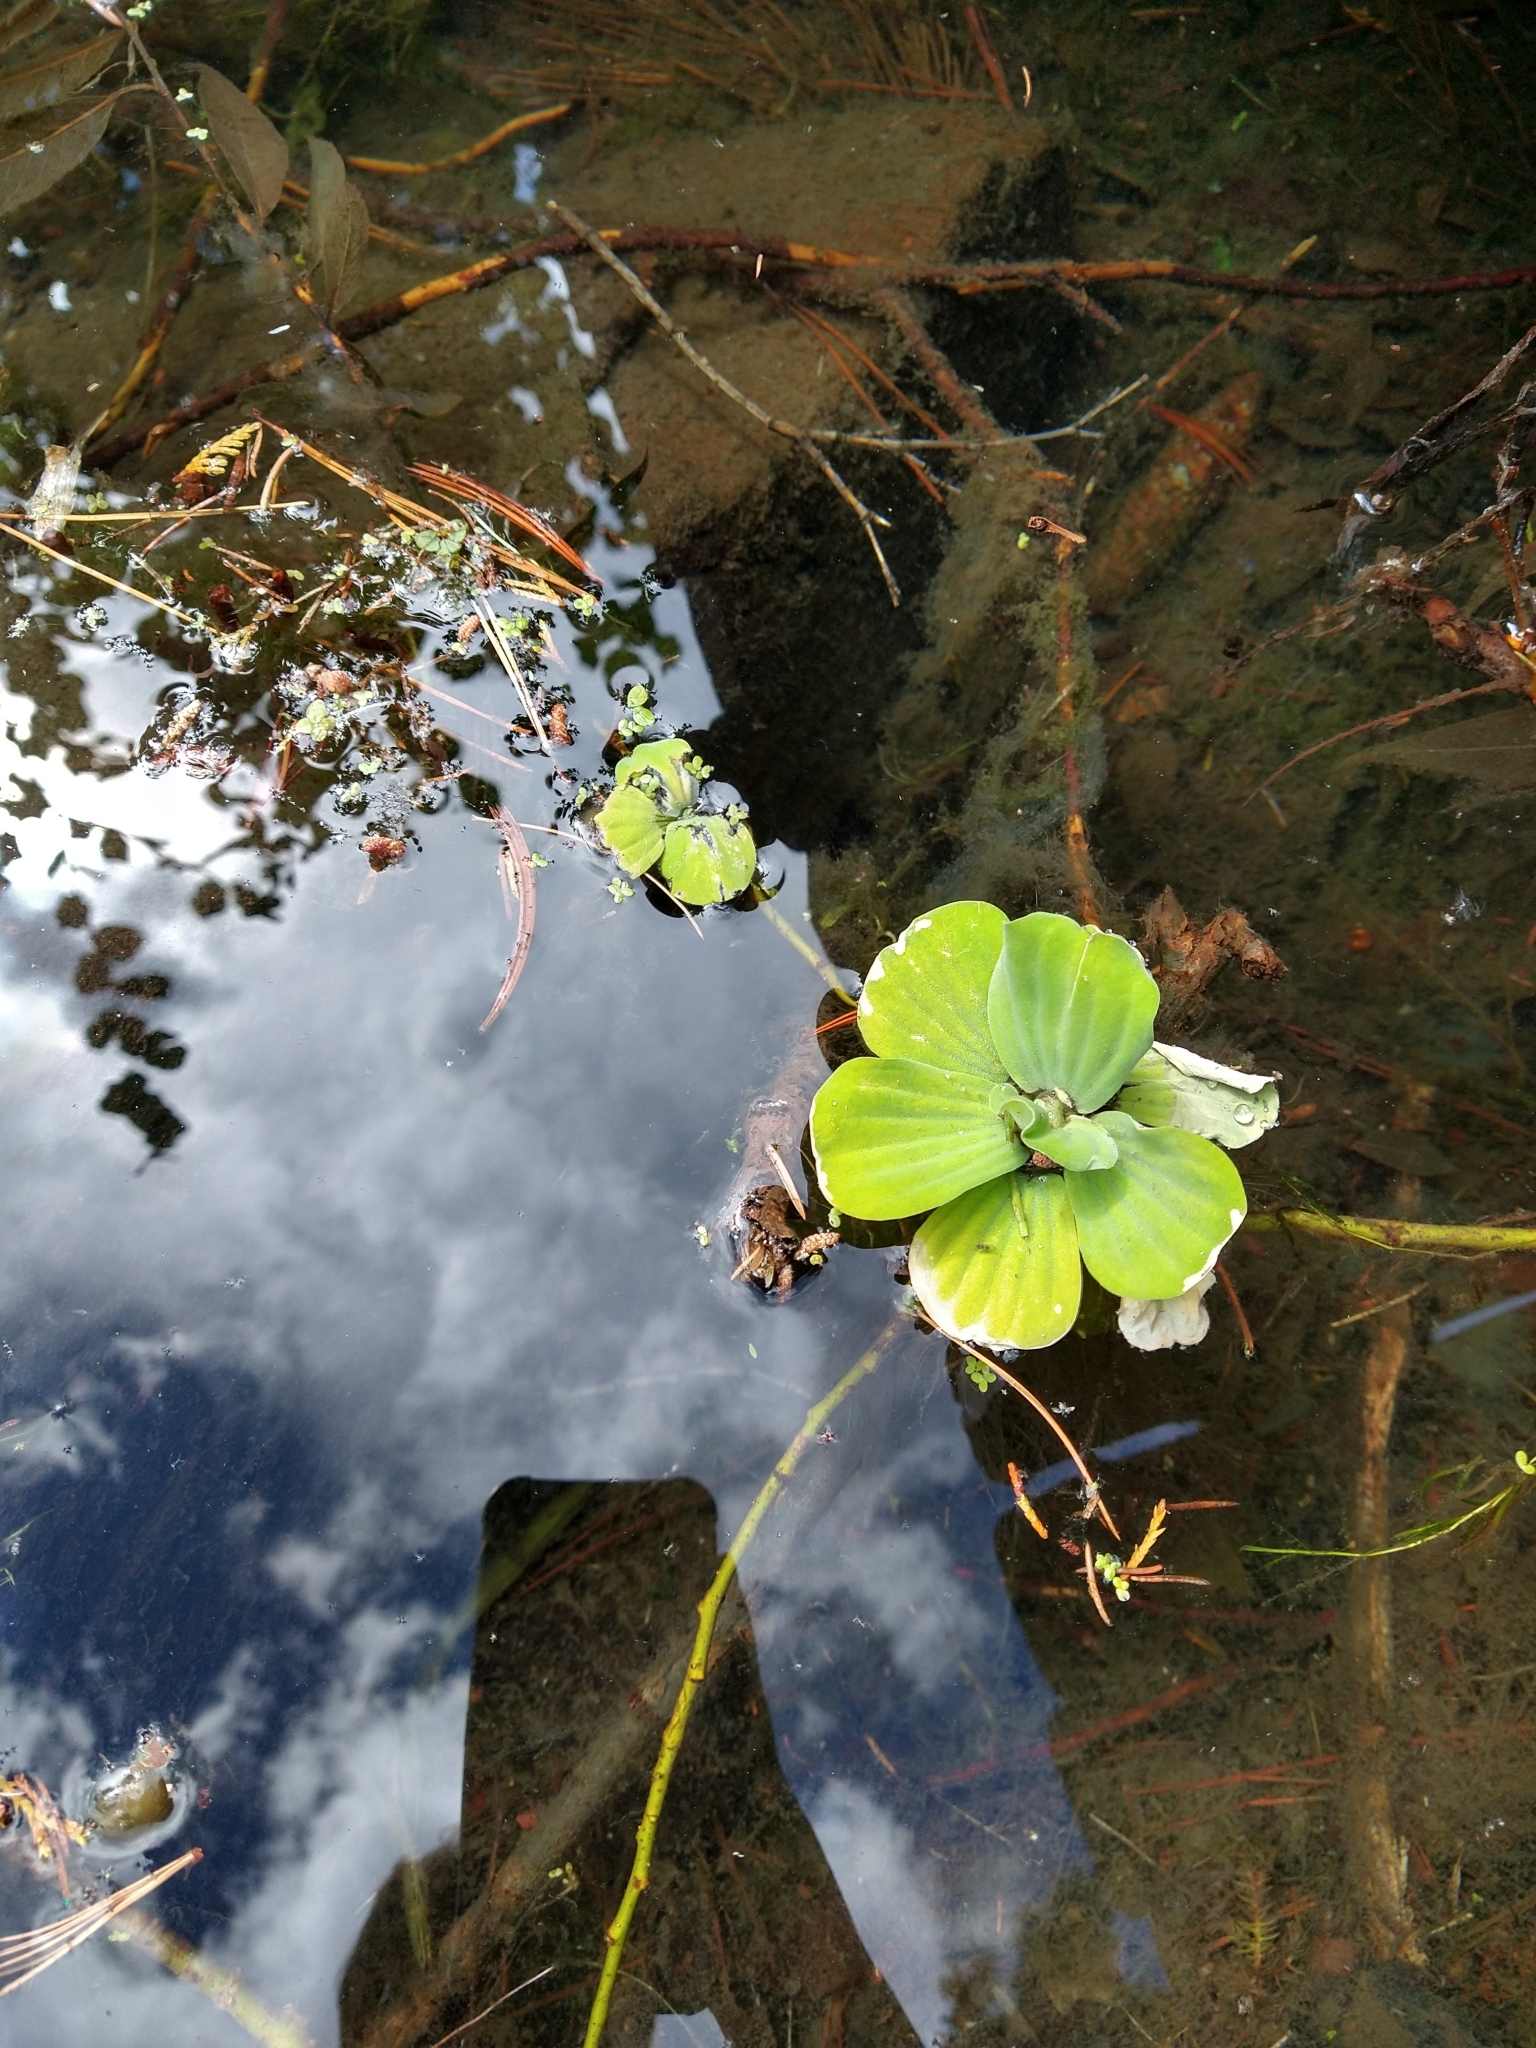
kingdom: Plantae
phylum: Tracheophyta
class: Liliopsida
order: Alismatales
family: Araceae
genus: Pistia
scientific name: Pistia stratiotes
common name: Water lettuce
